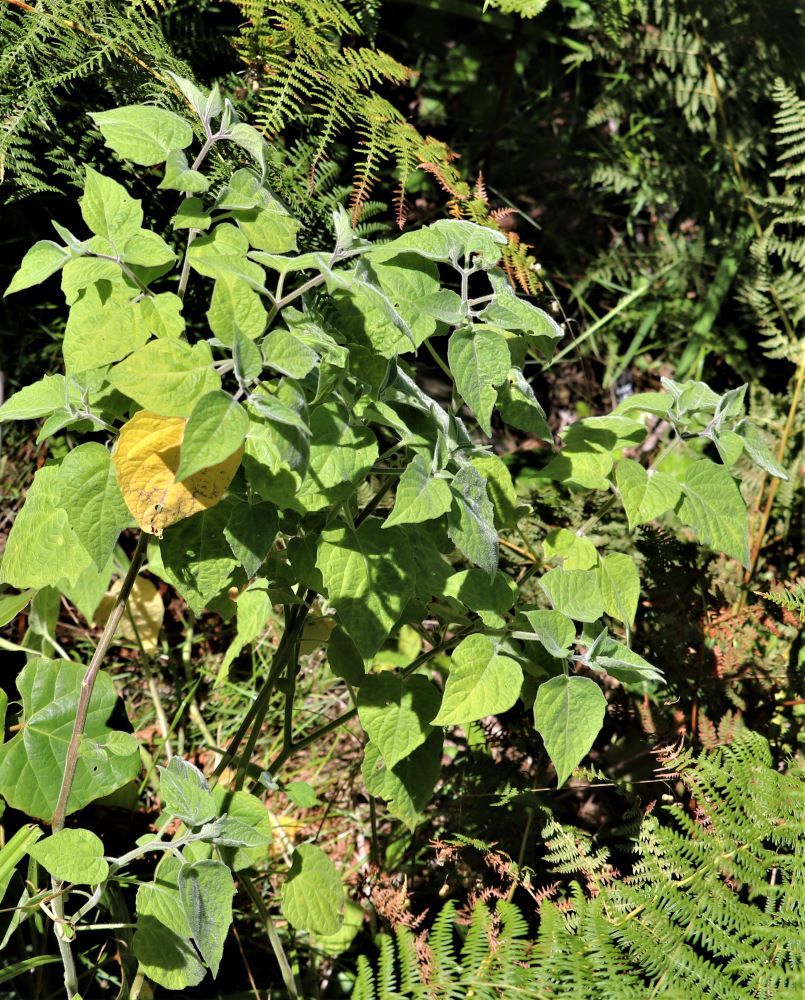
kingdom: Plantae
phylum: Tracheophyta
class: Magnoliopsida
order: Solanales
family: Solanaceae
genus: Physalis
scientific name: Physalis peruviana
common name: Cape-gooseberry
